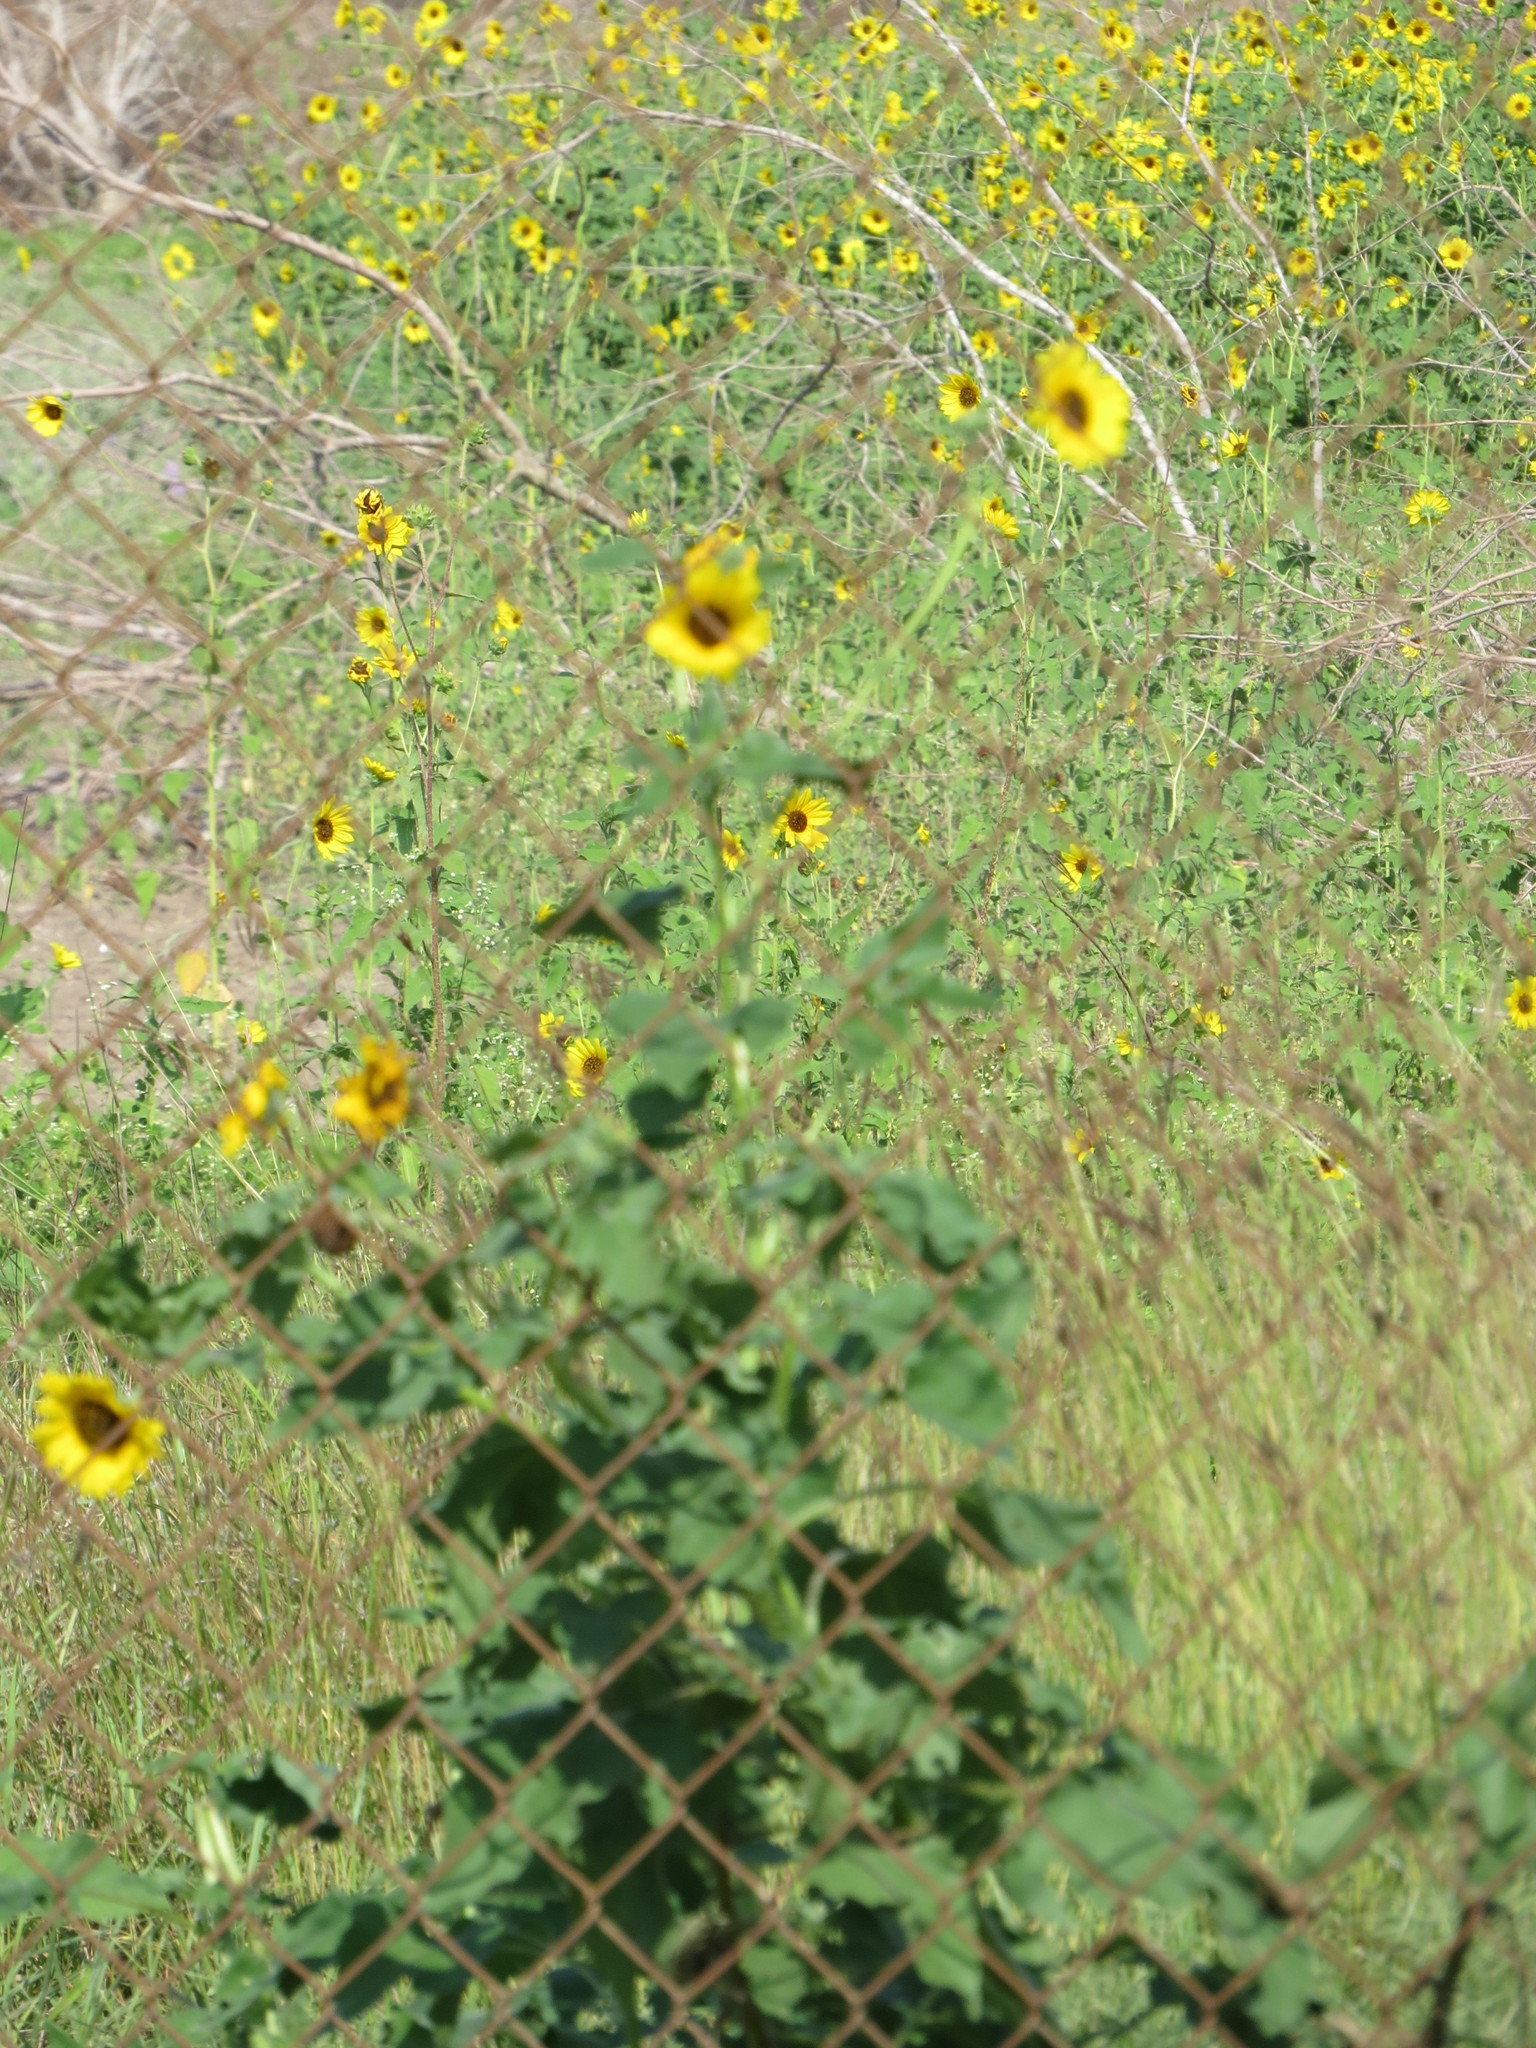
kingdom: Plantae
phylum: Tracheophyta
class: Magnoliopsida
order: Asterales
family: Asteraceae
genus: Helianthus
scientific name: Helianthus annuus
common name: Sunflower
